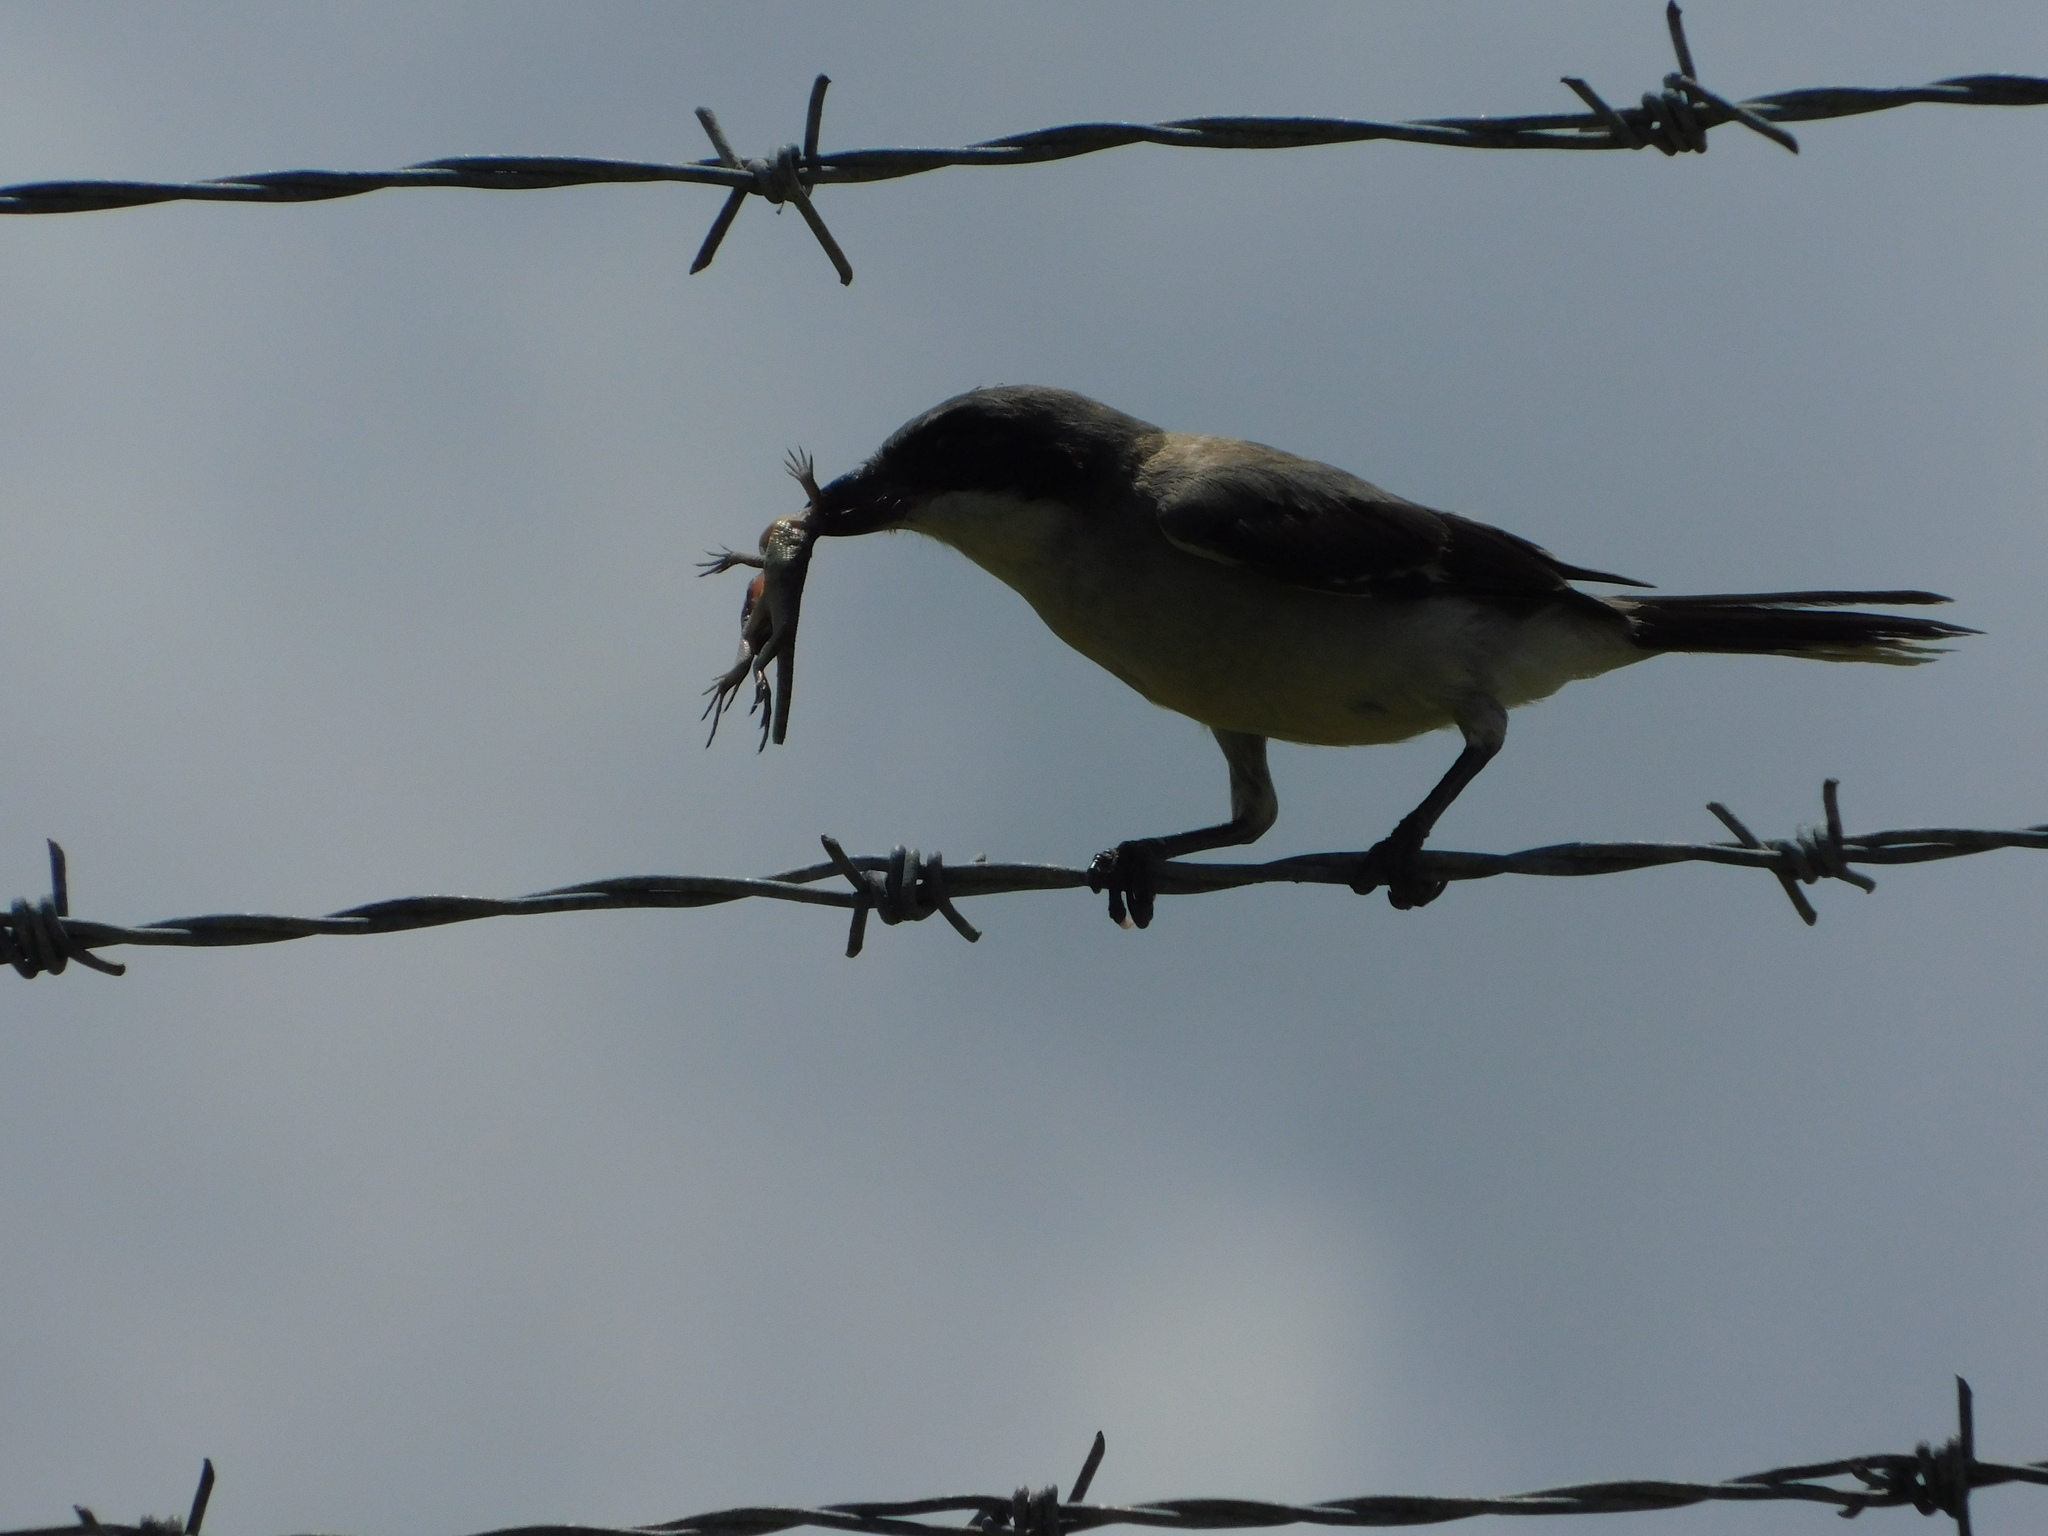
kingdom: Animalia
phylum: Chordata
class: Squamata
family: Leiocephalidae
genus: Leiocephalus
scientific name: Leiocephalus carinatus
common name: Northern curly-tailed lizard
